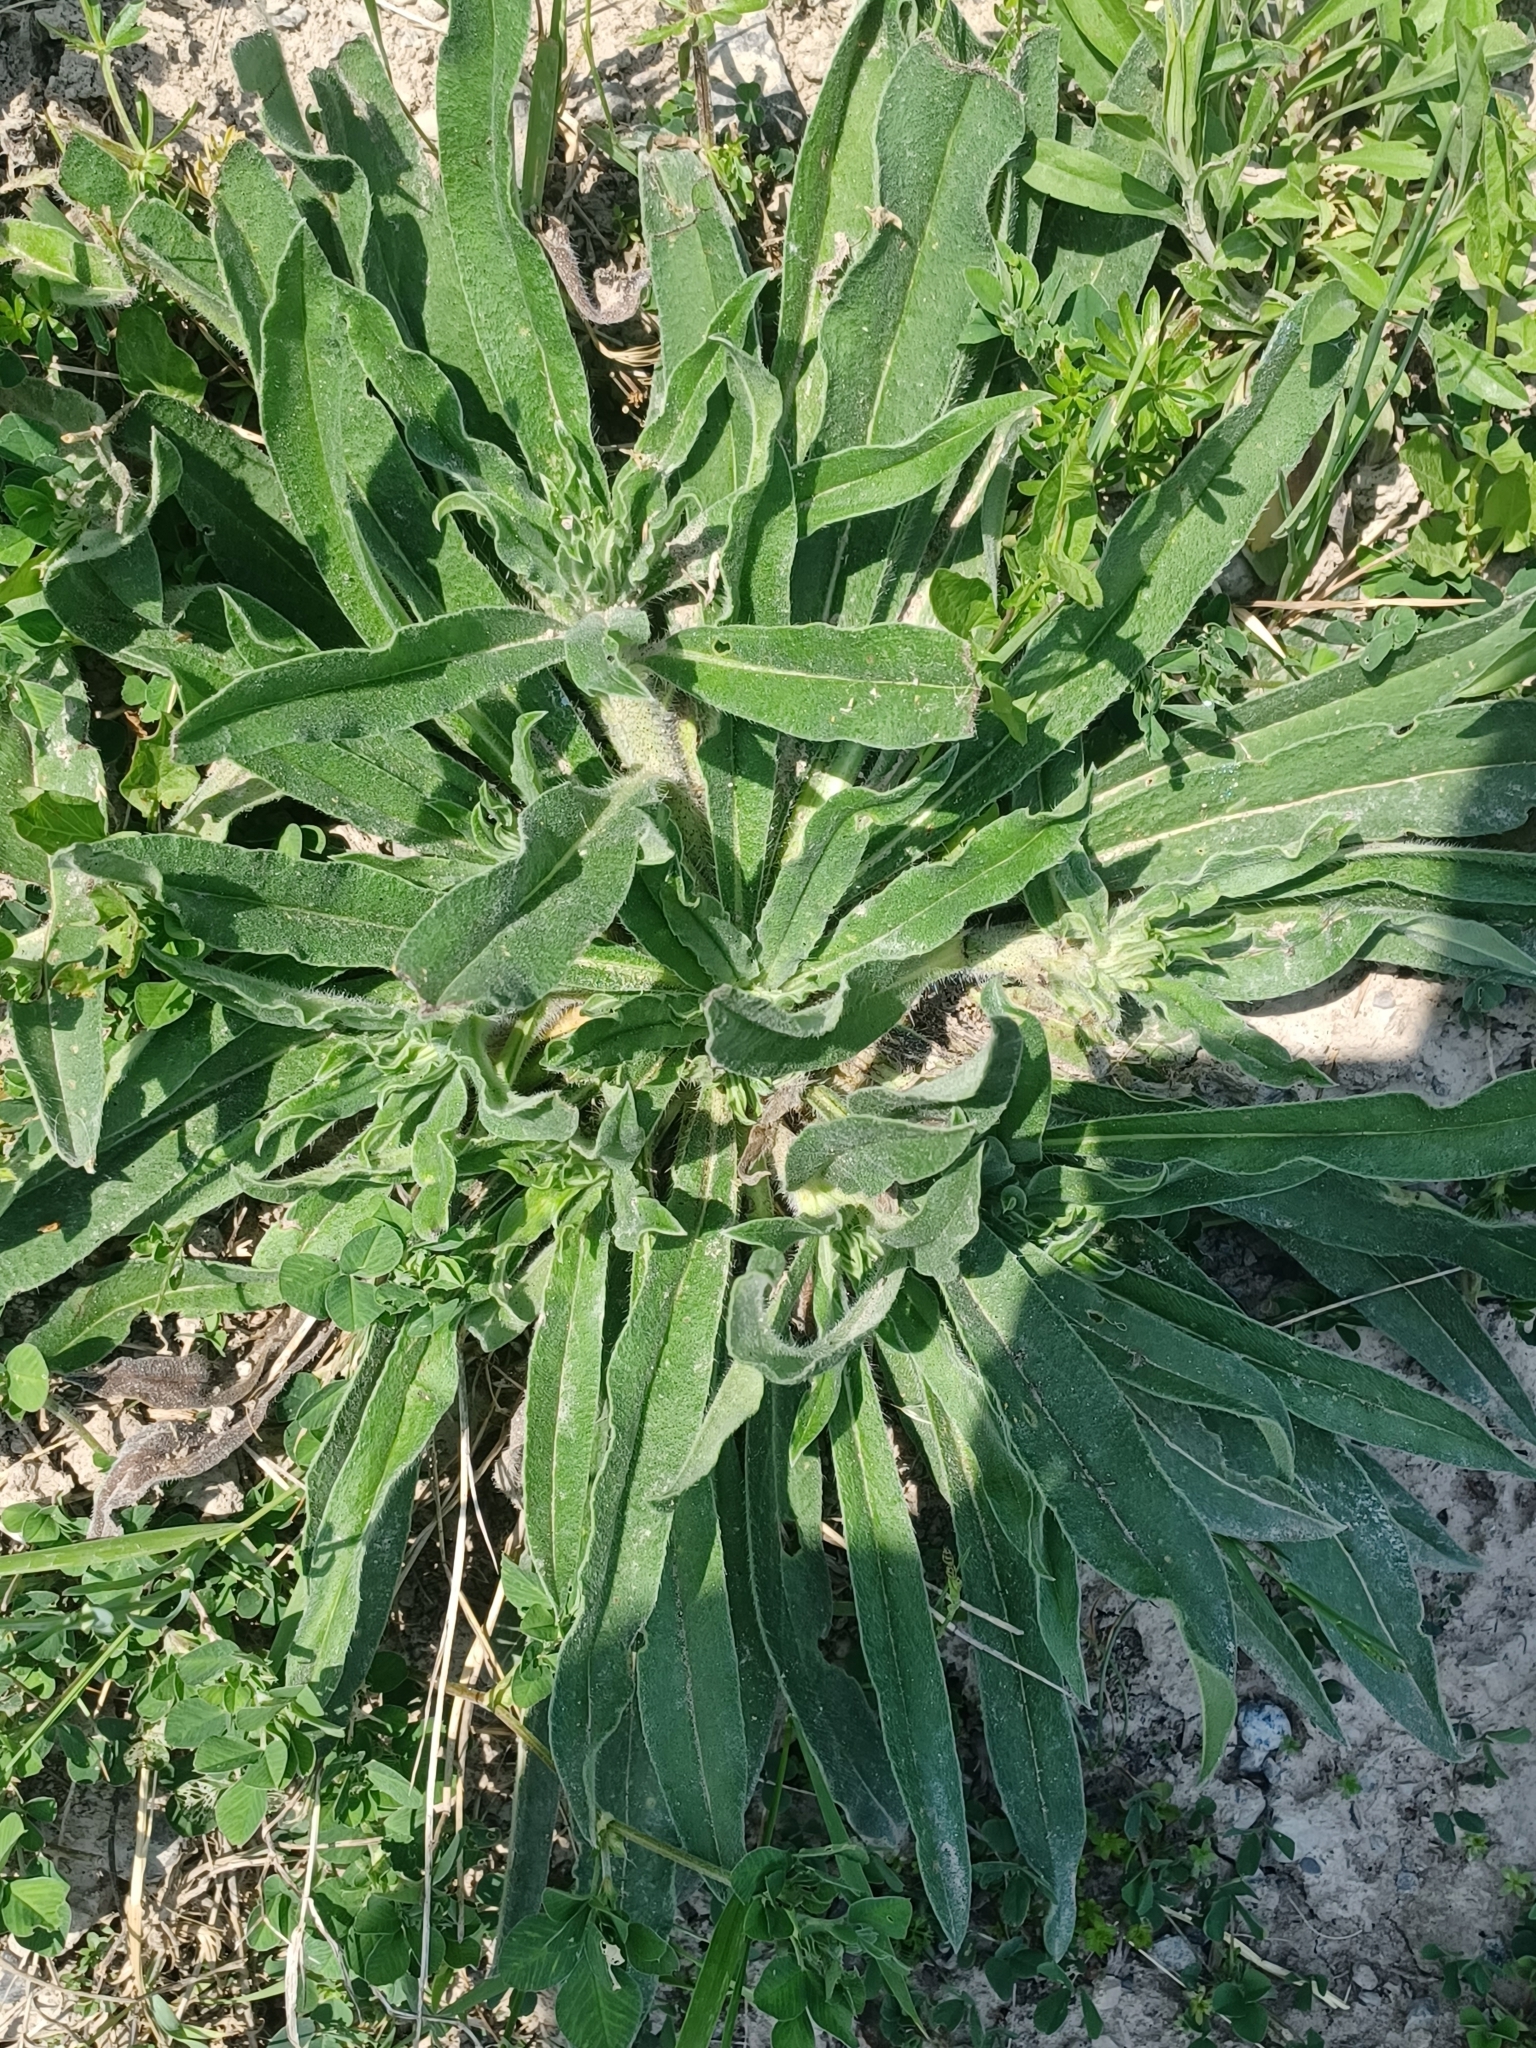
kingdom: Plantae
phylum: Tracheophyta
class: Magnoliopsida
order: Boraginales
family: Boraginaceae
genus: Echium
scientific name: Echium vulgare
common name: Common viper's bugloss
